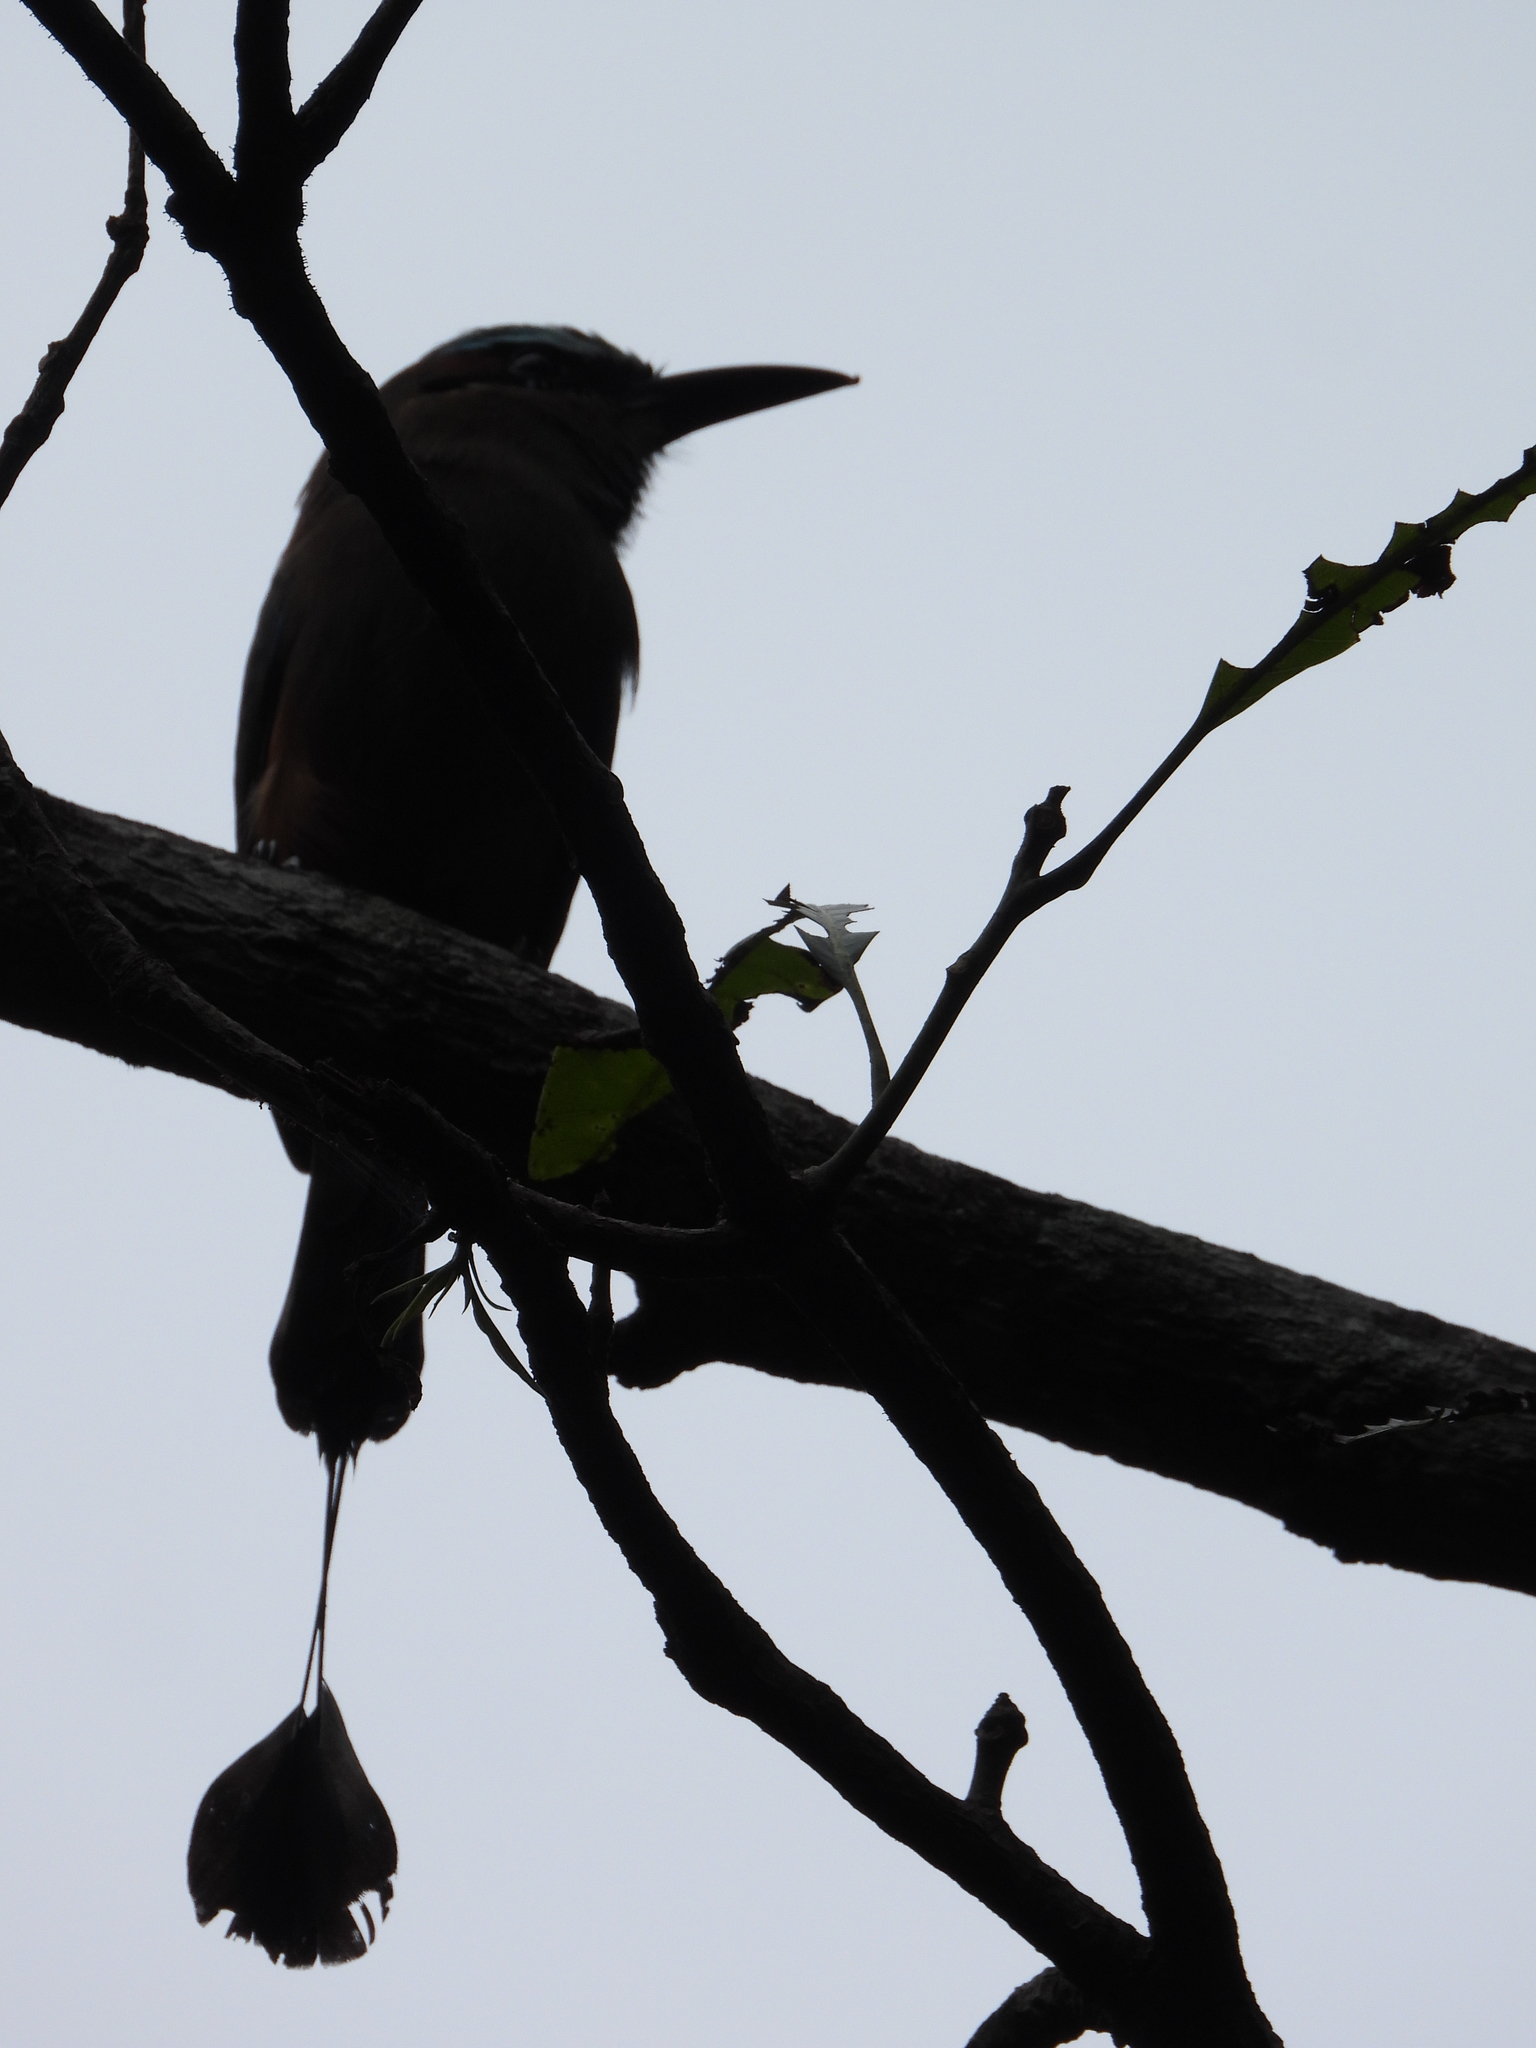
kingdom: Animalia
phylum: Chordata
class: Aves
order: Coraciiformes
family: Momotidae
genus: Eumomota
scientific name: Eumomota superciliosa
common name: Turquoise-browed motmot
